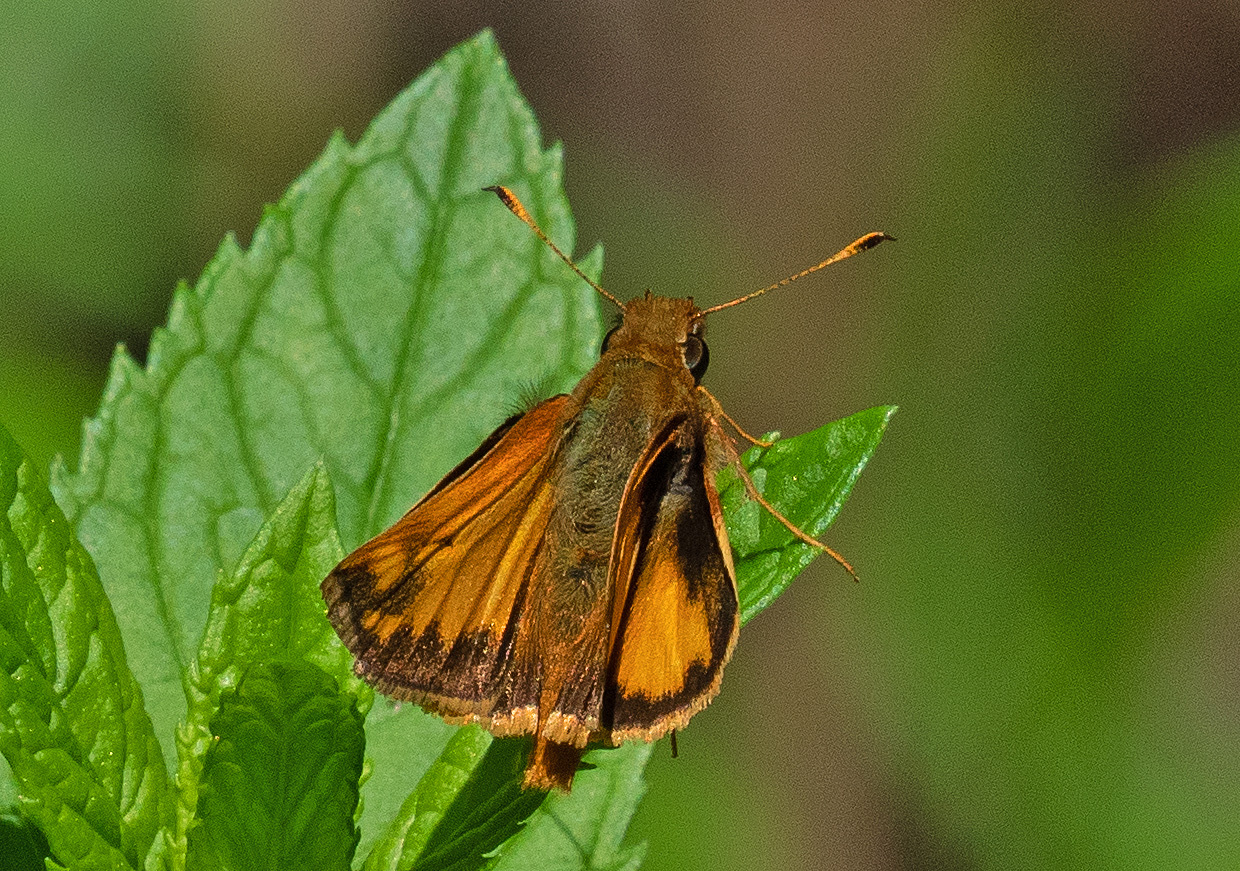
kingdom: Animalia
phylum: Arthropoda
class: Insecta
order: Lepidoptera
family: Hesperiidae
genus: Lon
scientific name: Lon zabulon
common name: Zabulon skipper
